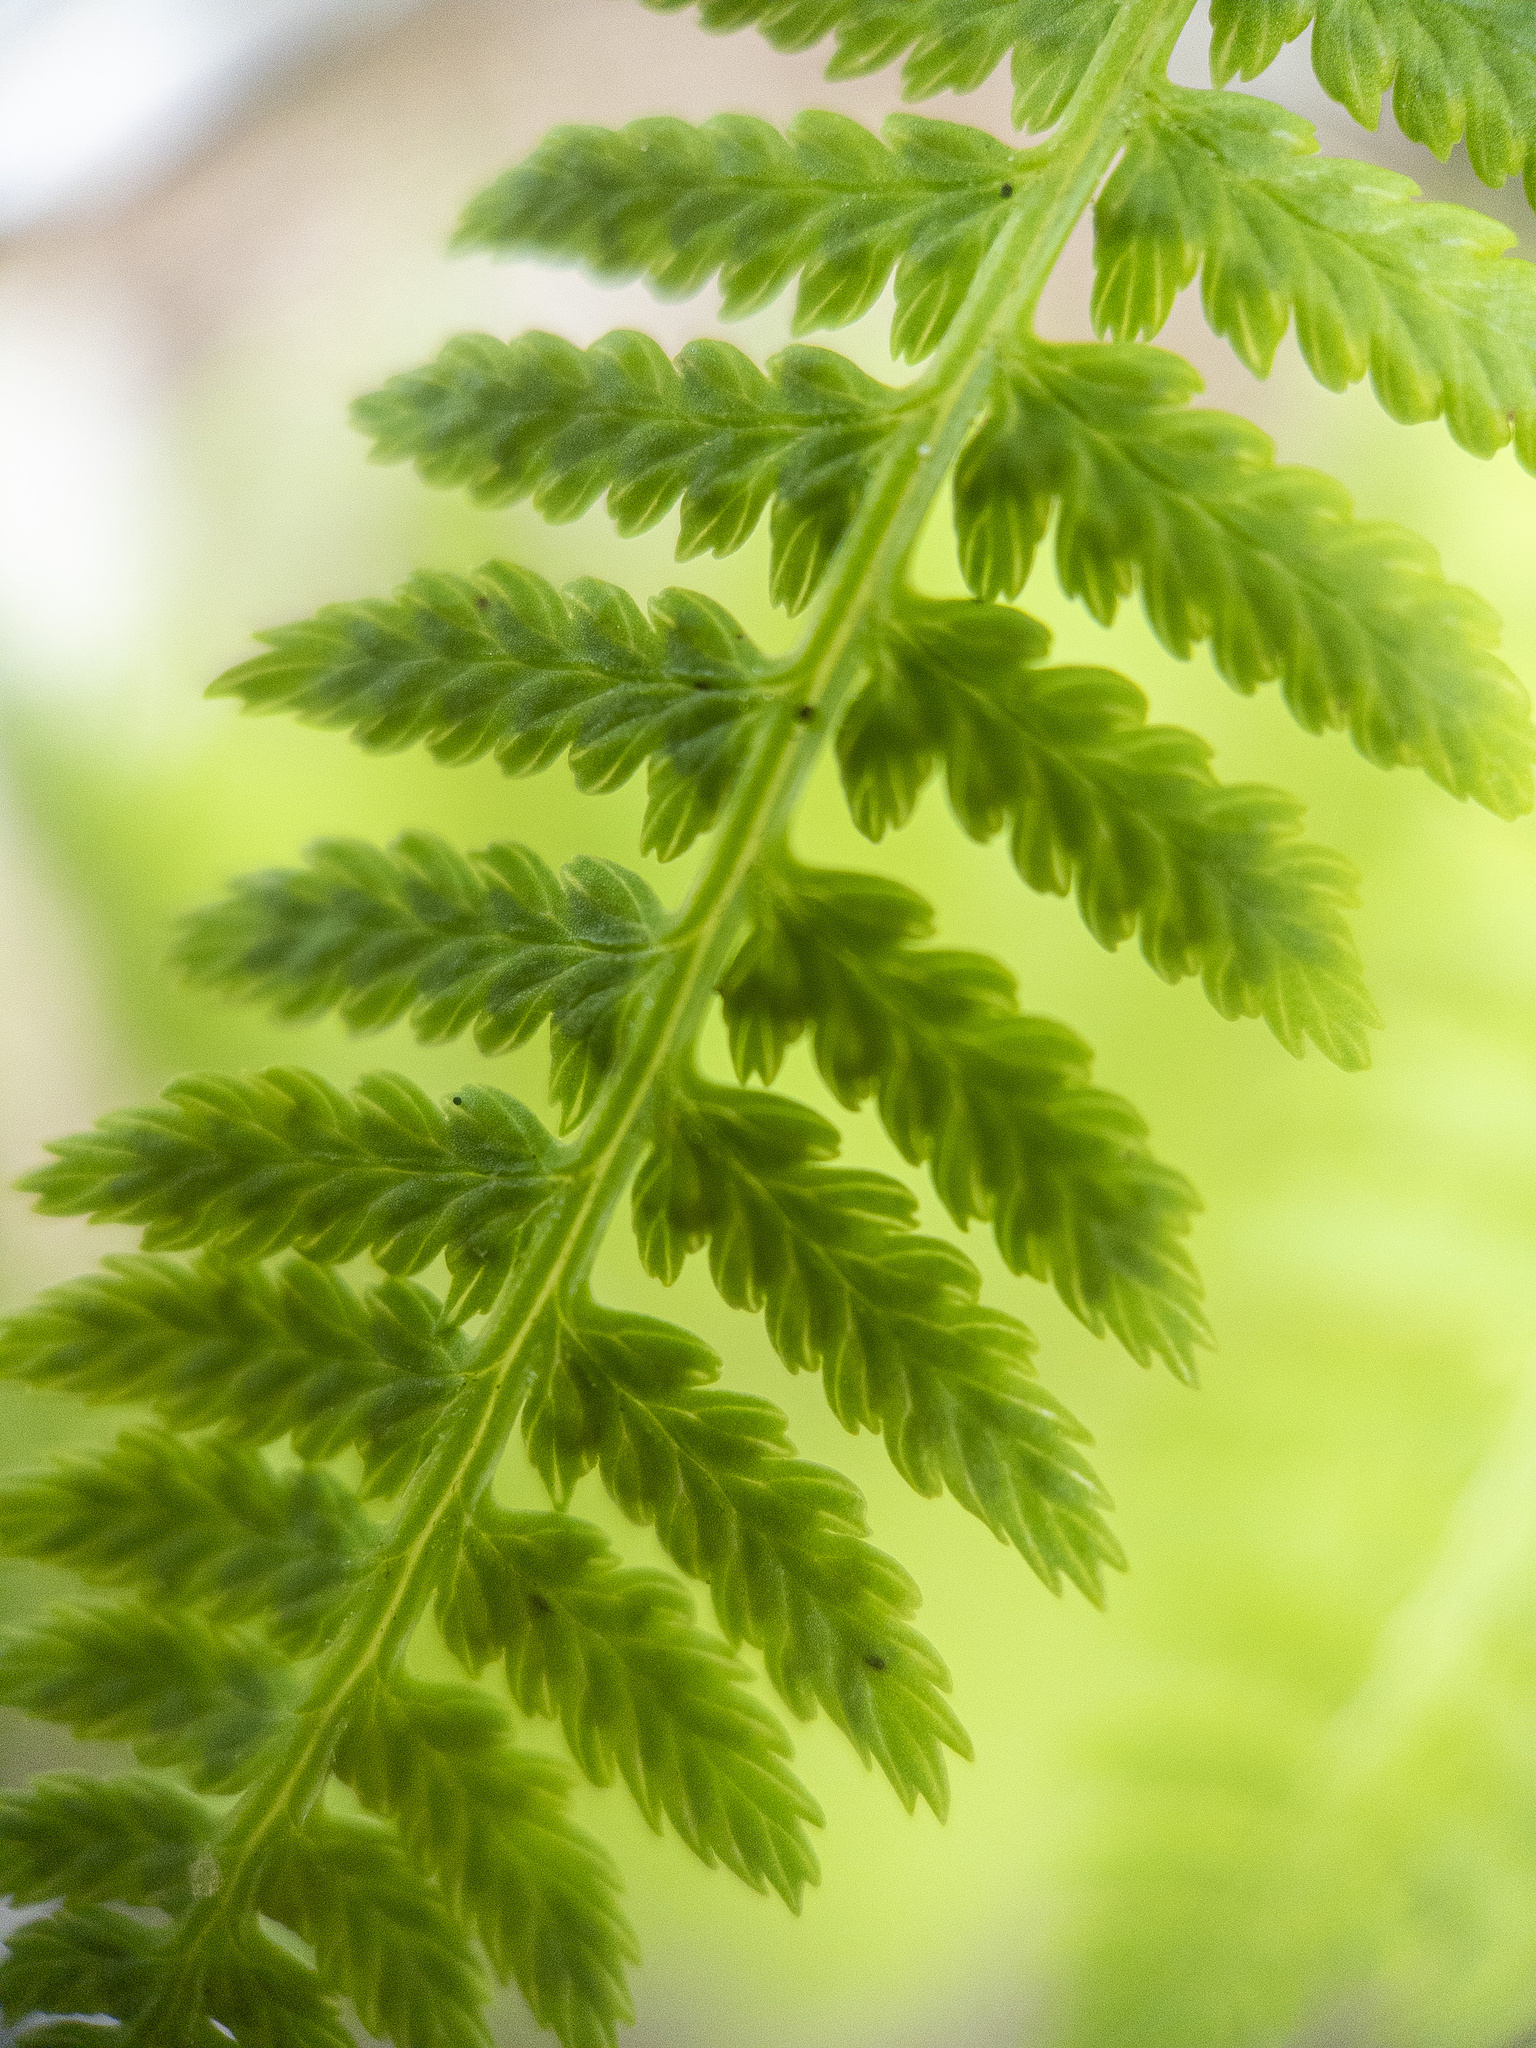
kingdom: Plantae
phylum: Tracheophyta
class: Polypodiopsida
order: Polypodiales
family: Athyriaceae
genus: Athyrium
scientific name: Athyrium asplenioides
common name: Southern lady fern
